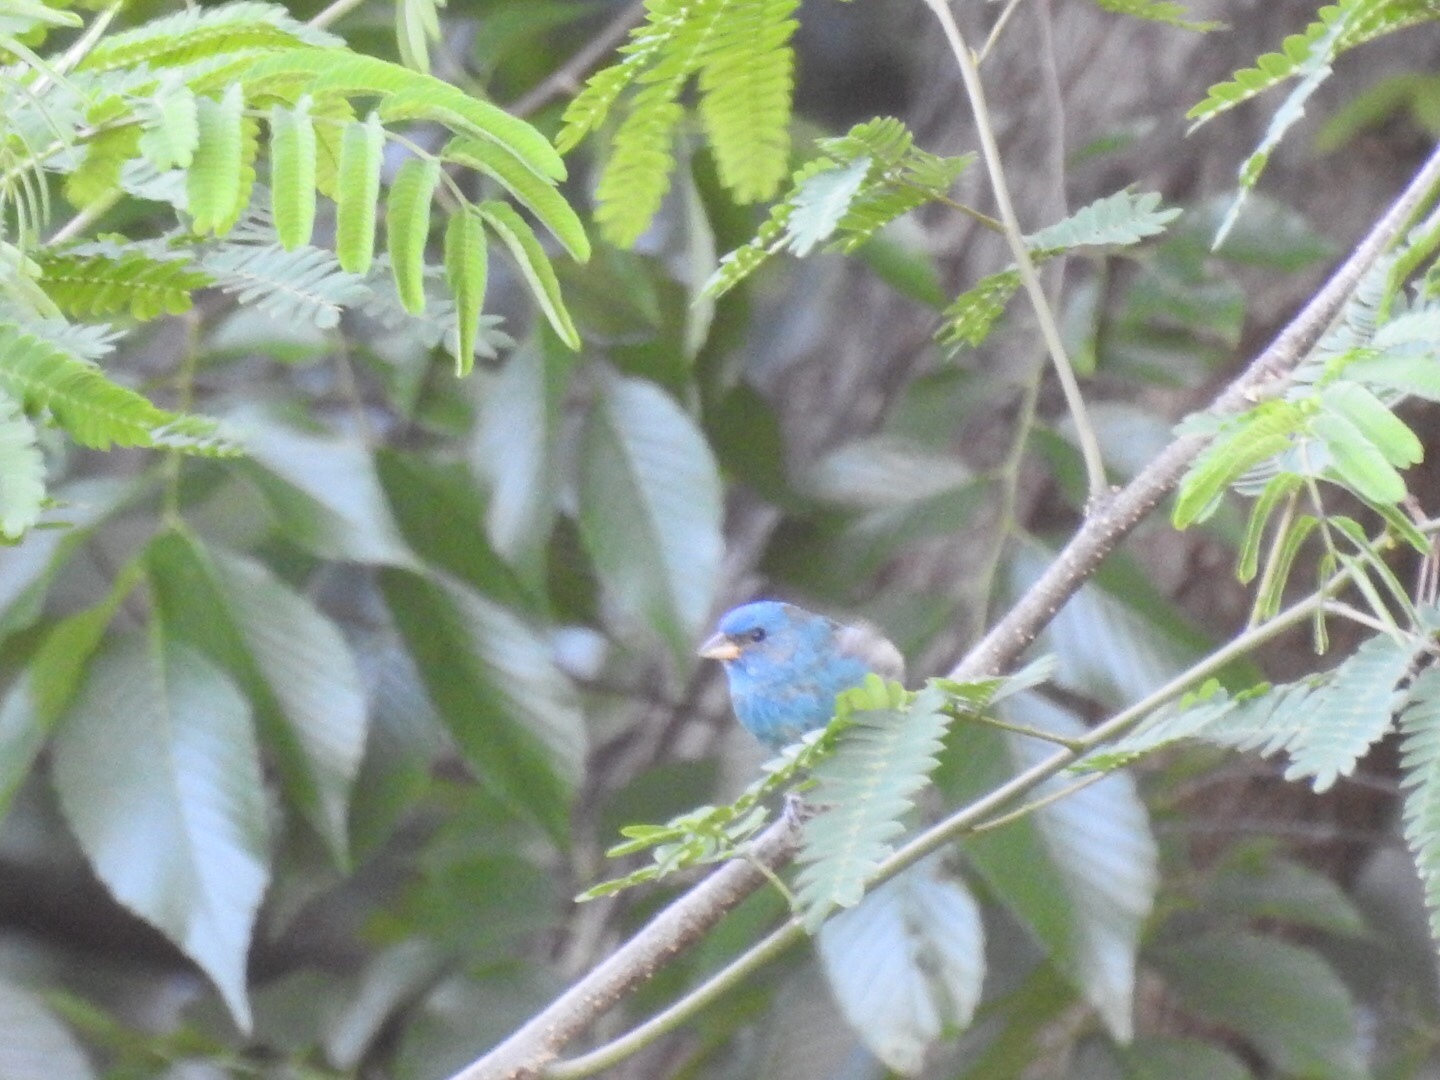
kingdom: Animalia
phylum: Chordata
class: Aves
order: Passeriformes
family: Cardinalidae
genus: Passerina
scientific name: Passerina cyanea
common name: Indigo bunting
